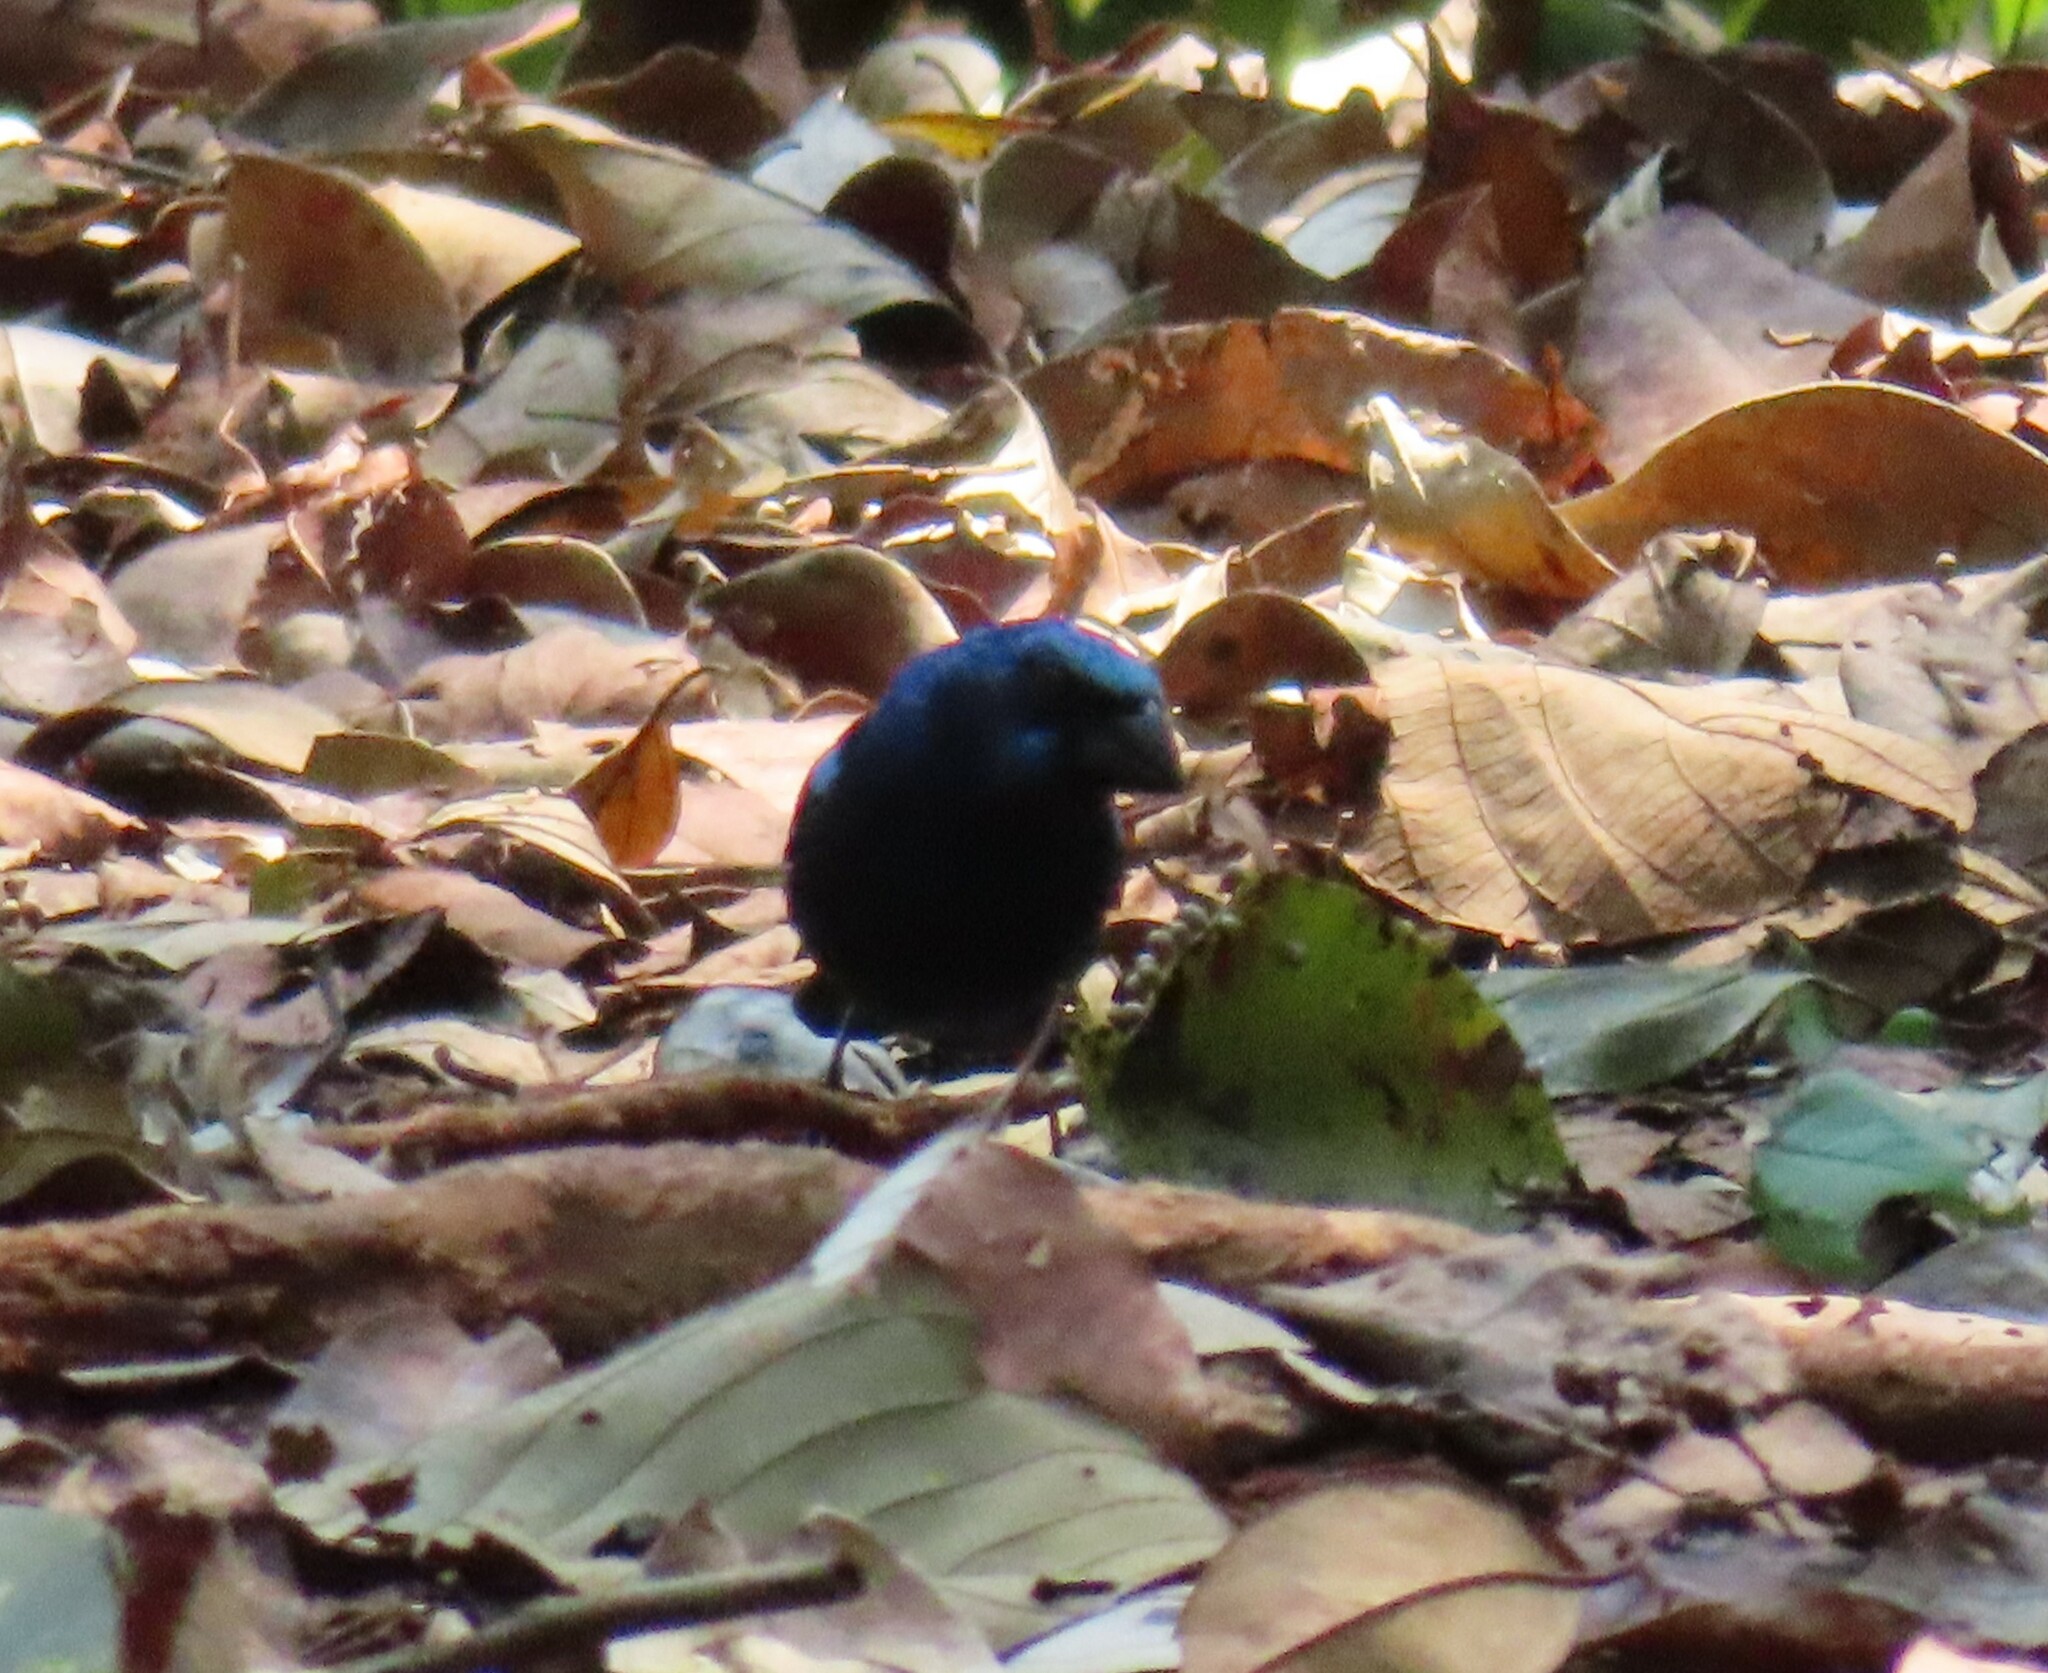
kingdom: Animalia
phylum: Chordata
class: Aves
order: Passeriformes
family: Cardinalidae
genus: Cyanocompsa
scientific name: Cyanocompsa parellina
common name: Blue bunting
